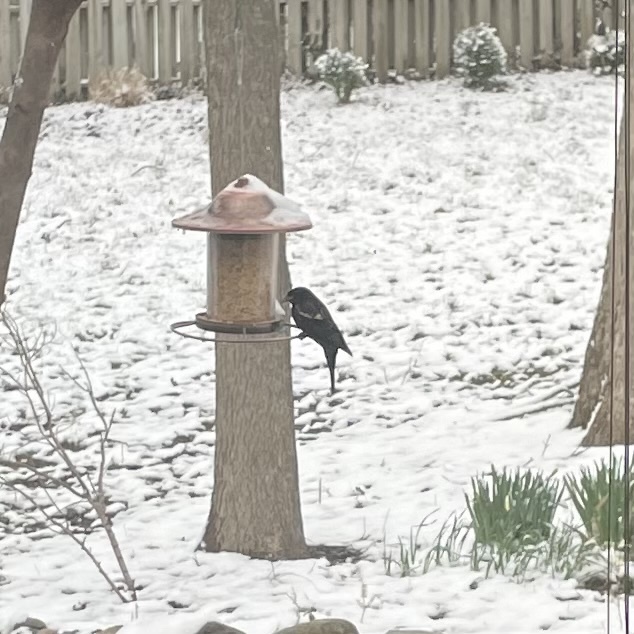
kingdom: Animalia
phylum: Chordata
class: Aves
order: Passeriformes
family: Icteridae
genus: Agelaius
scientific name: Agelaius phoeniceus
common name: Red-winged blackbird
